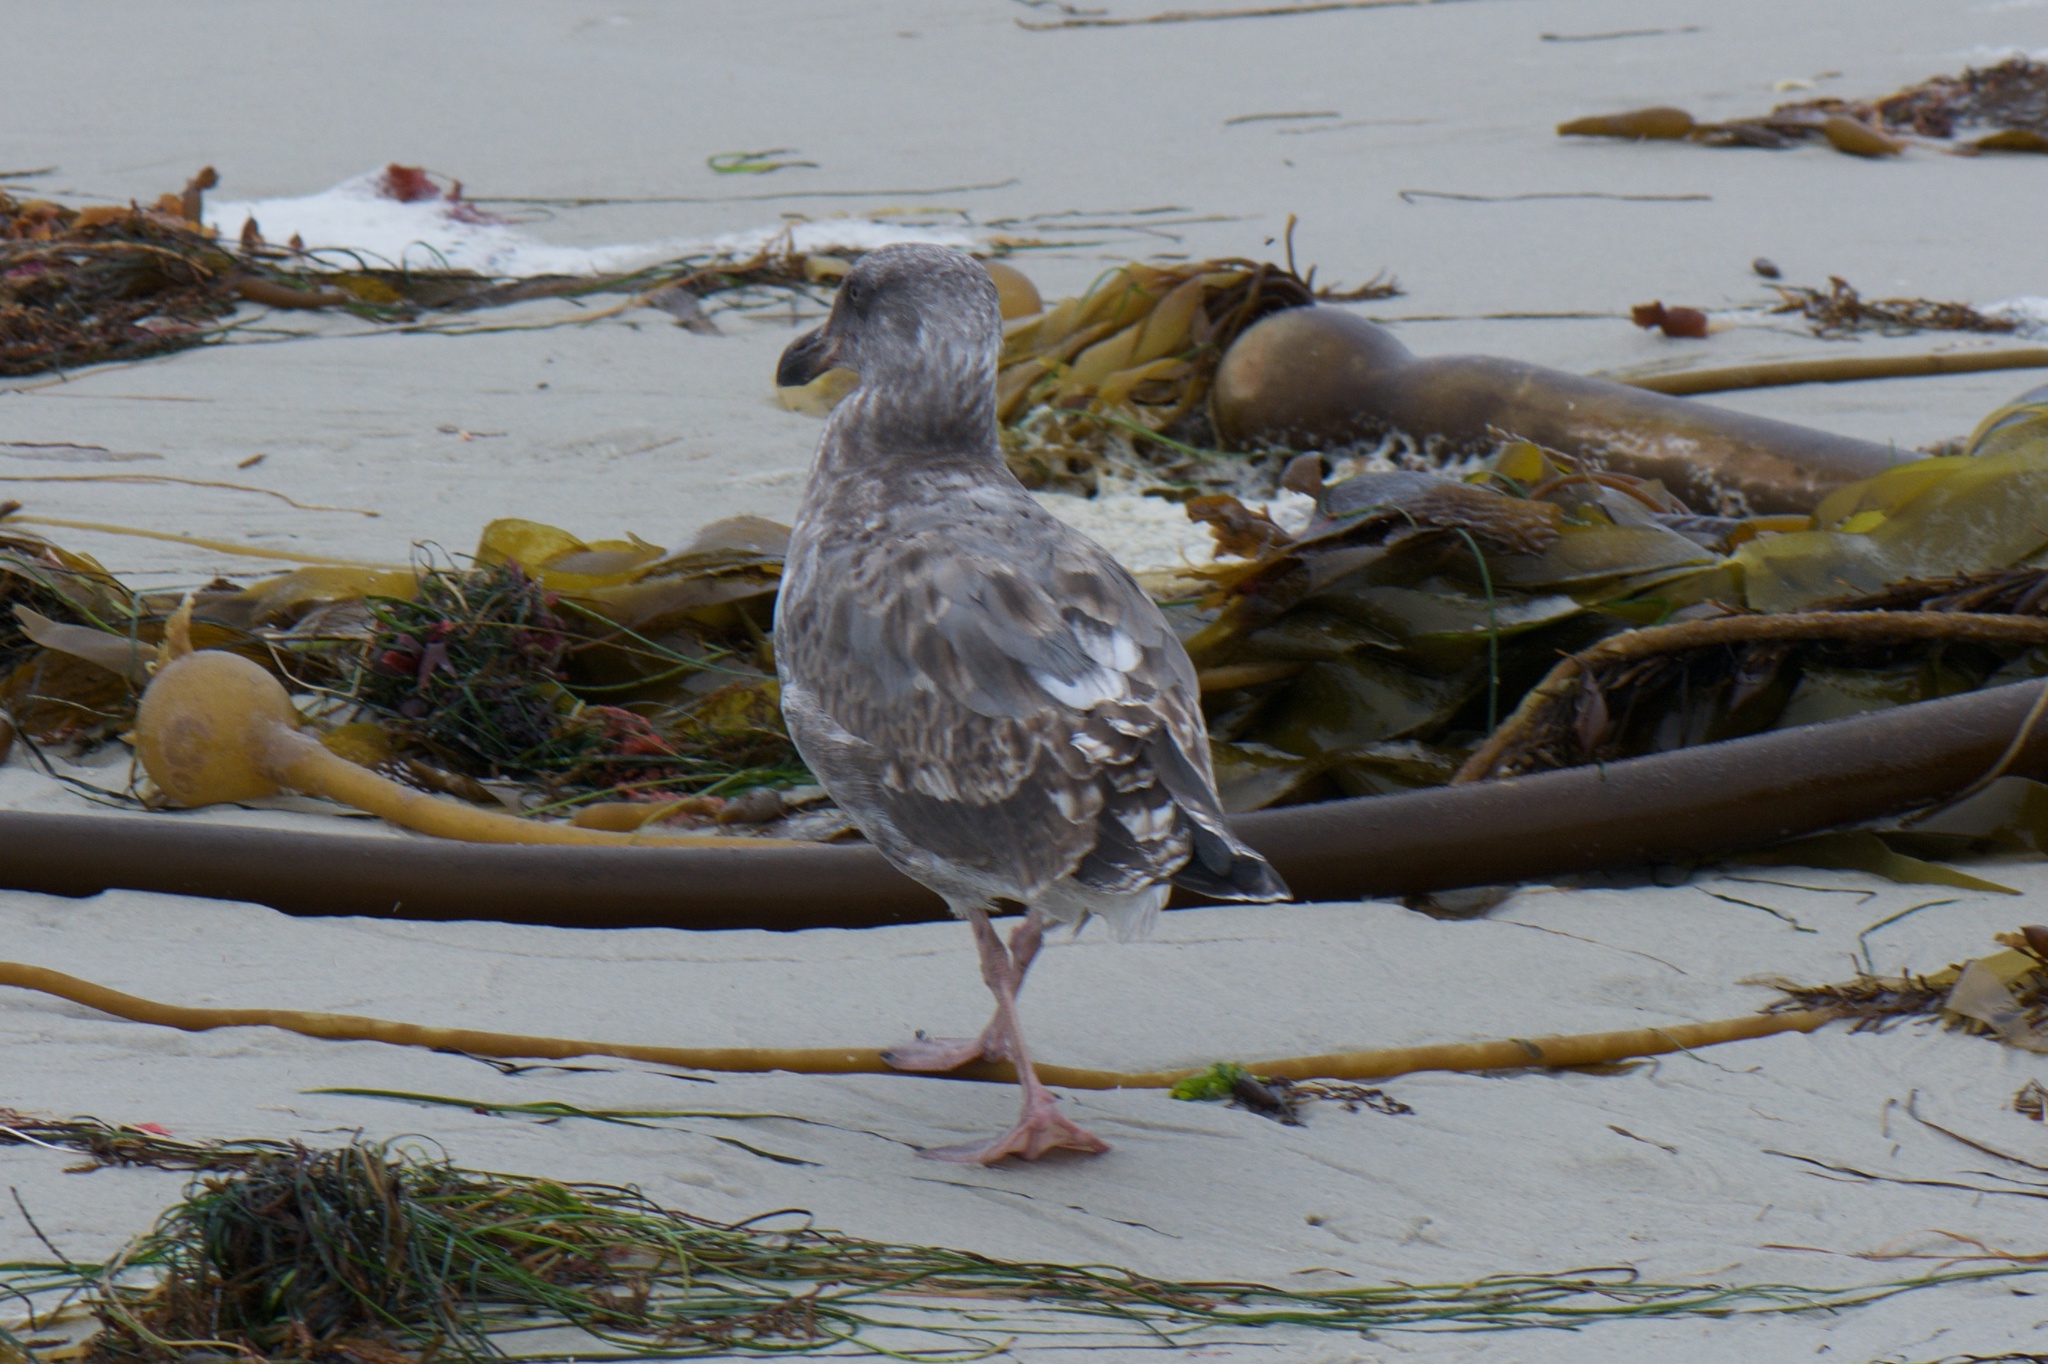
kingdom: Animalia
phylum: Chordata
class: Aves
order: Charadriiformes
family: Laridae
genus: Larus
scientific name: Larus occidentalis
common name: Western gull
